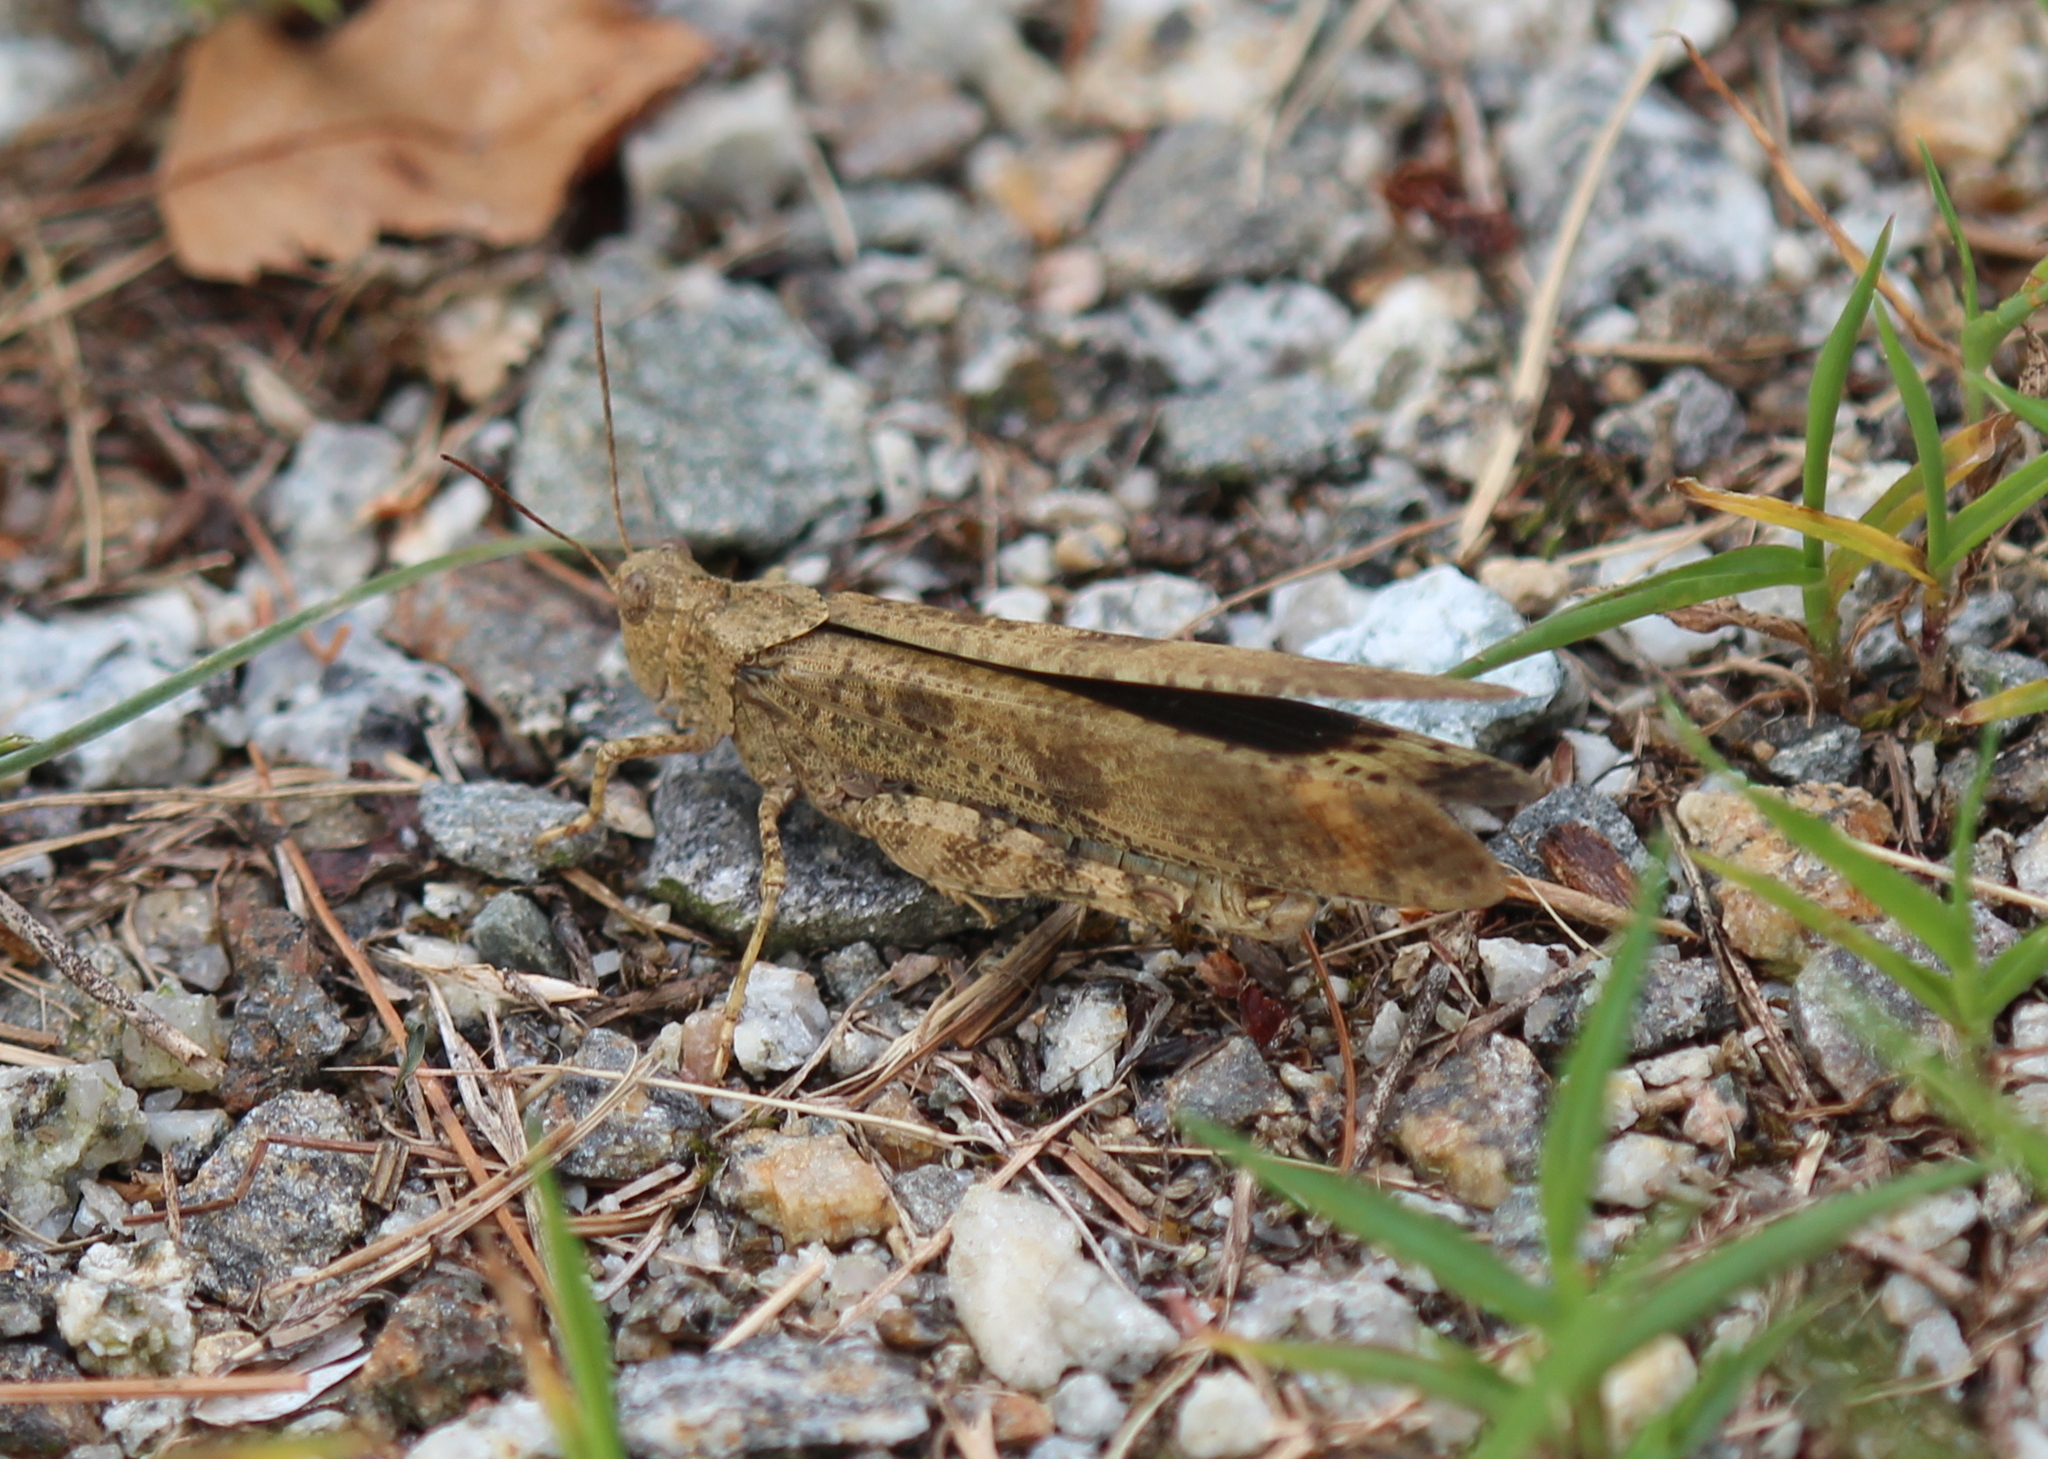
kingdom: Animalia
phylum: Arthropoda
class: Insecta
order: Orthoptera
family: Acrididae
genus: Dissosteira
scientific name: Dissosteira carolina
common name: Carolina grasshopper
